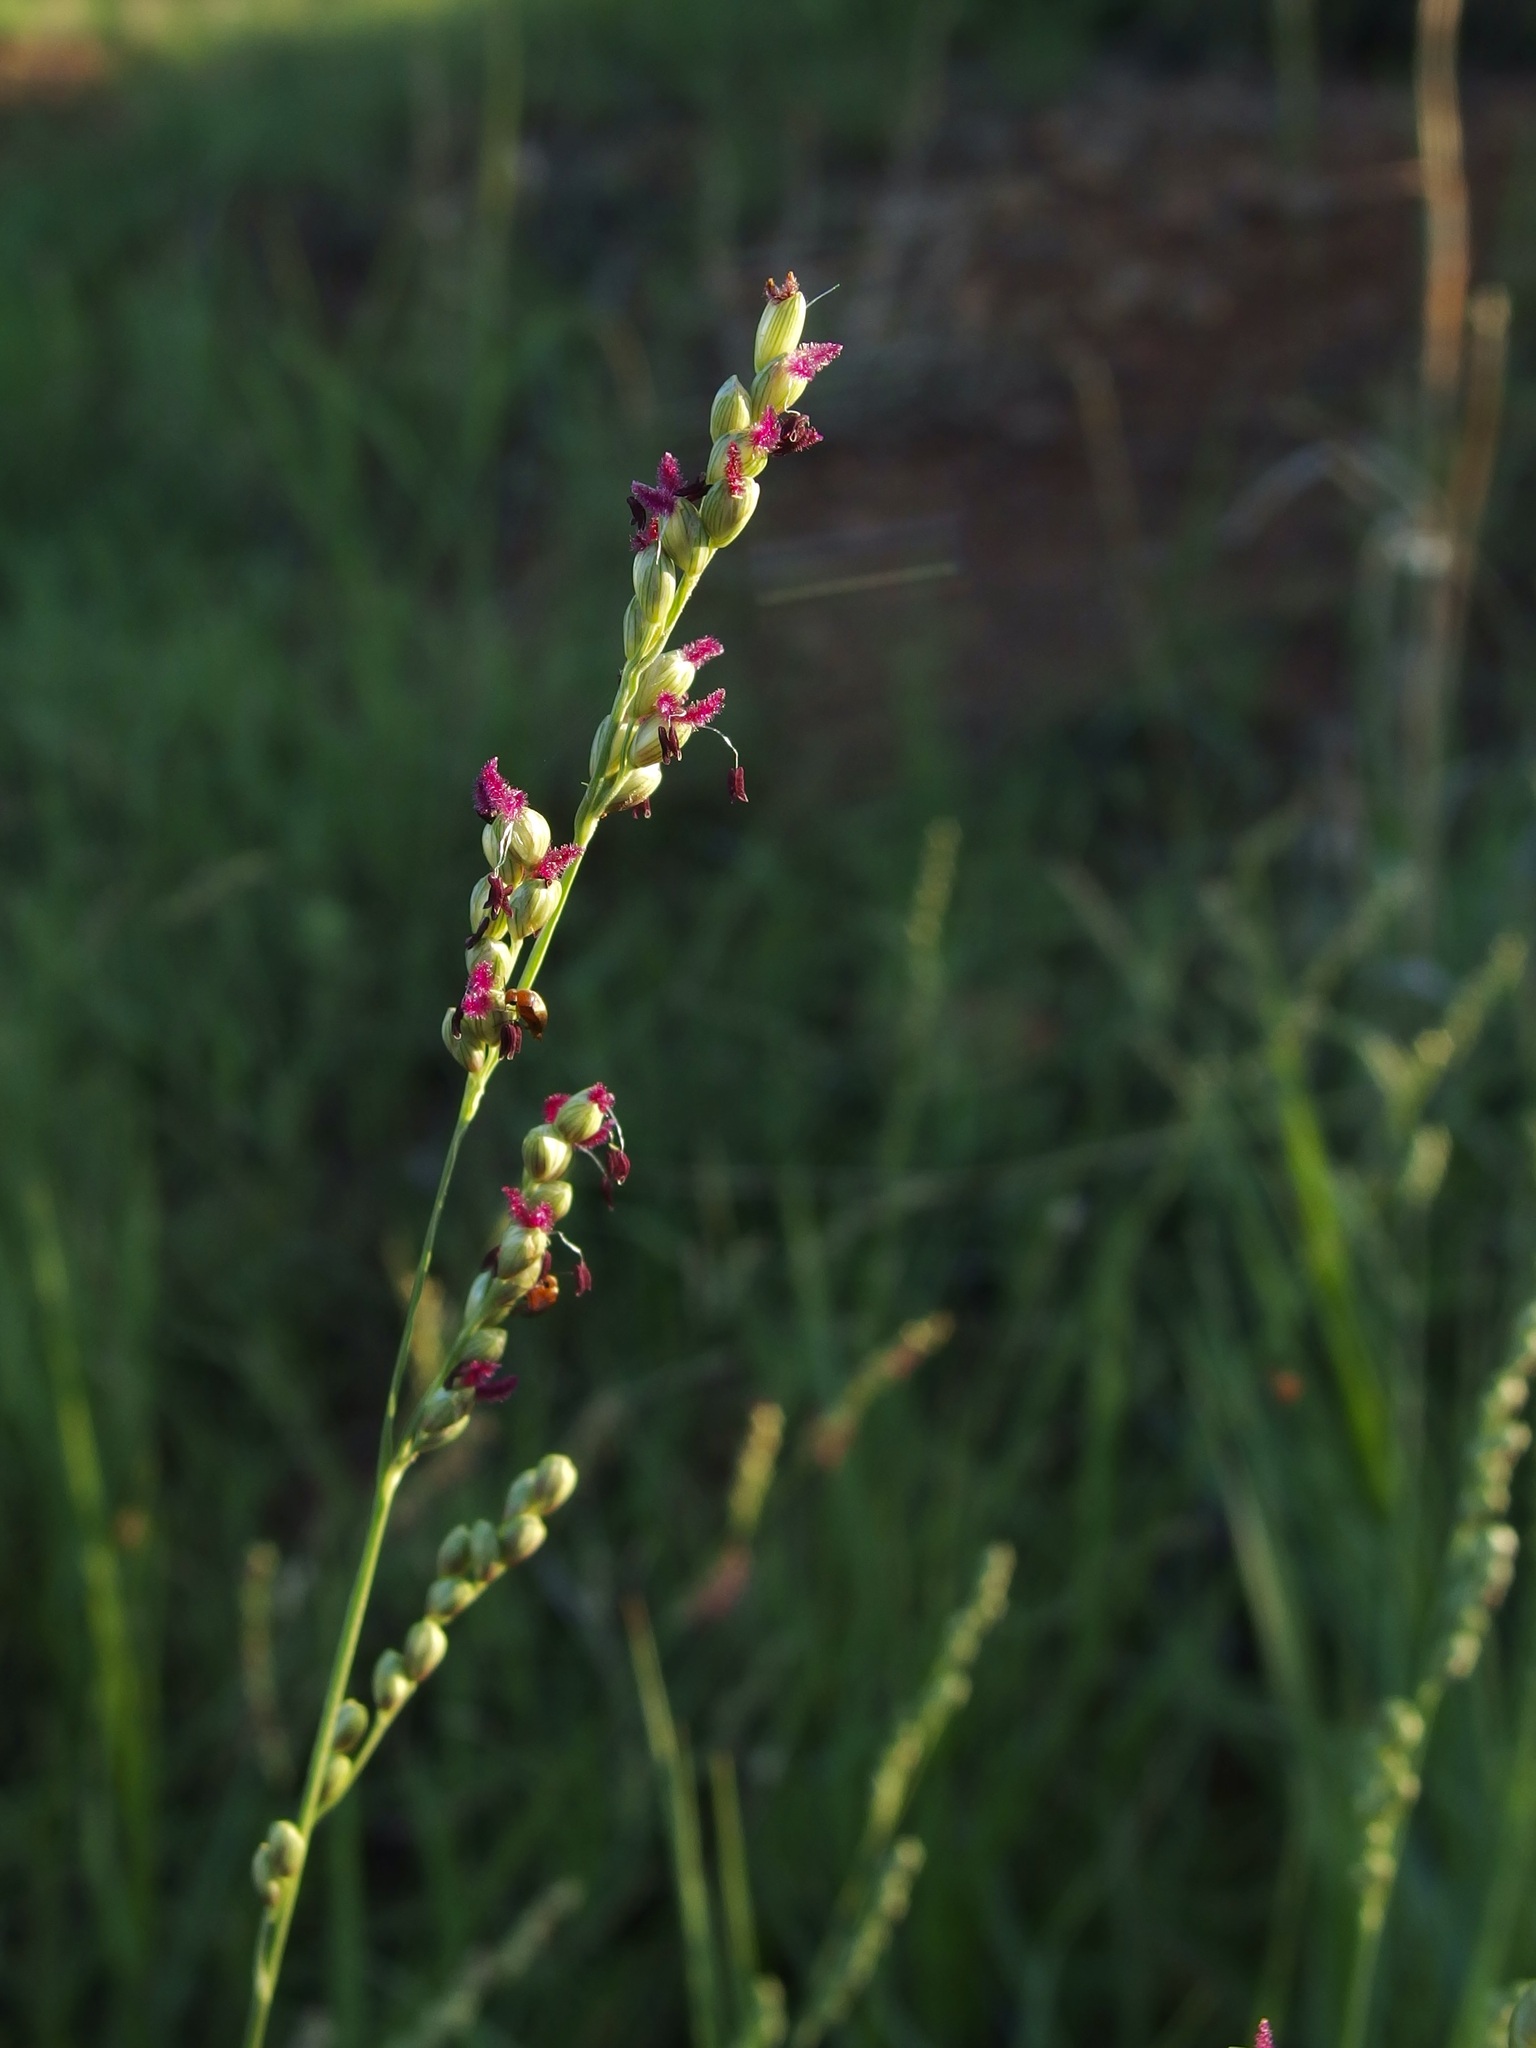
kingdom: Plantae
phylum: Tracheophyta
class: Liliopsida
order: Poales
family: Poaceae
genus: Hopia
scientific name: Hopia obtusa
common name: Vine-mesquite
